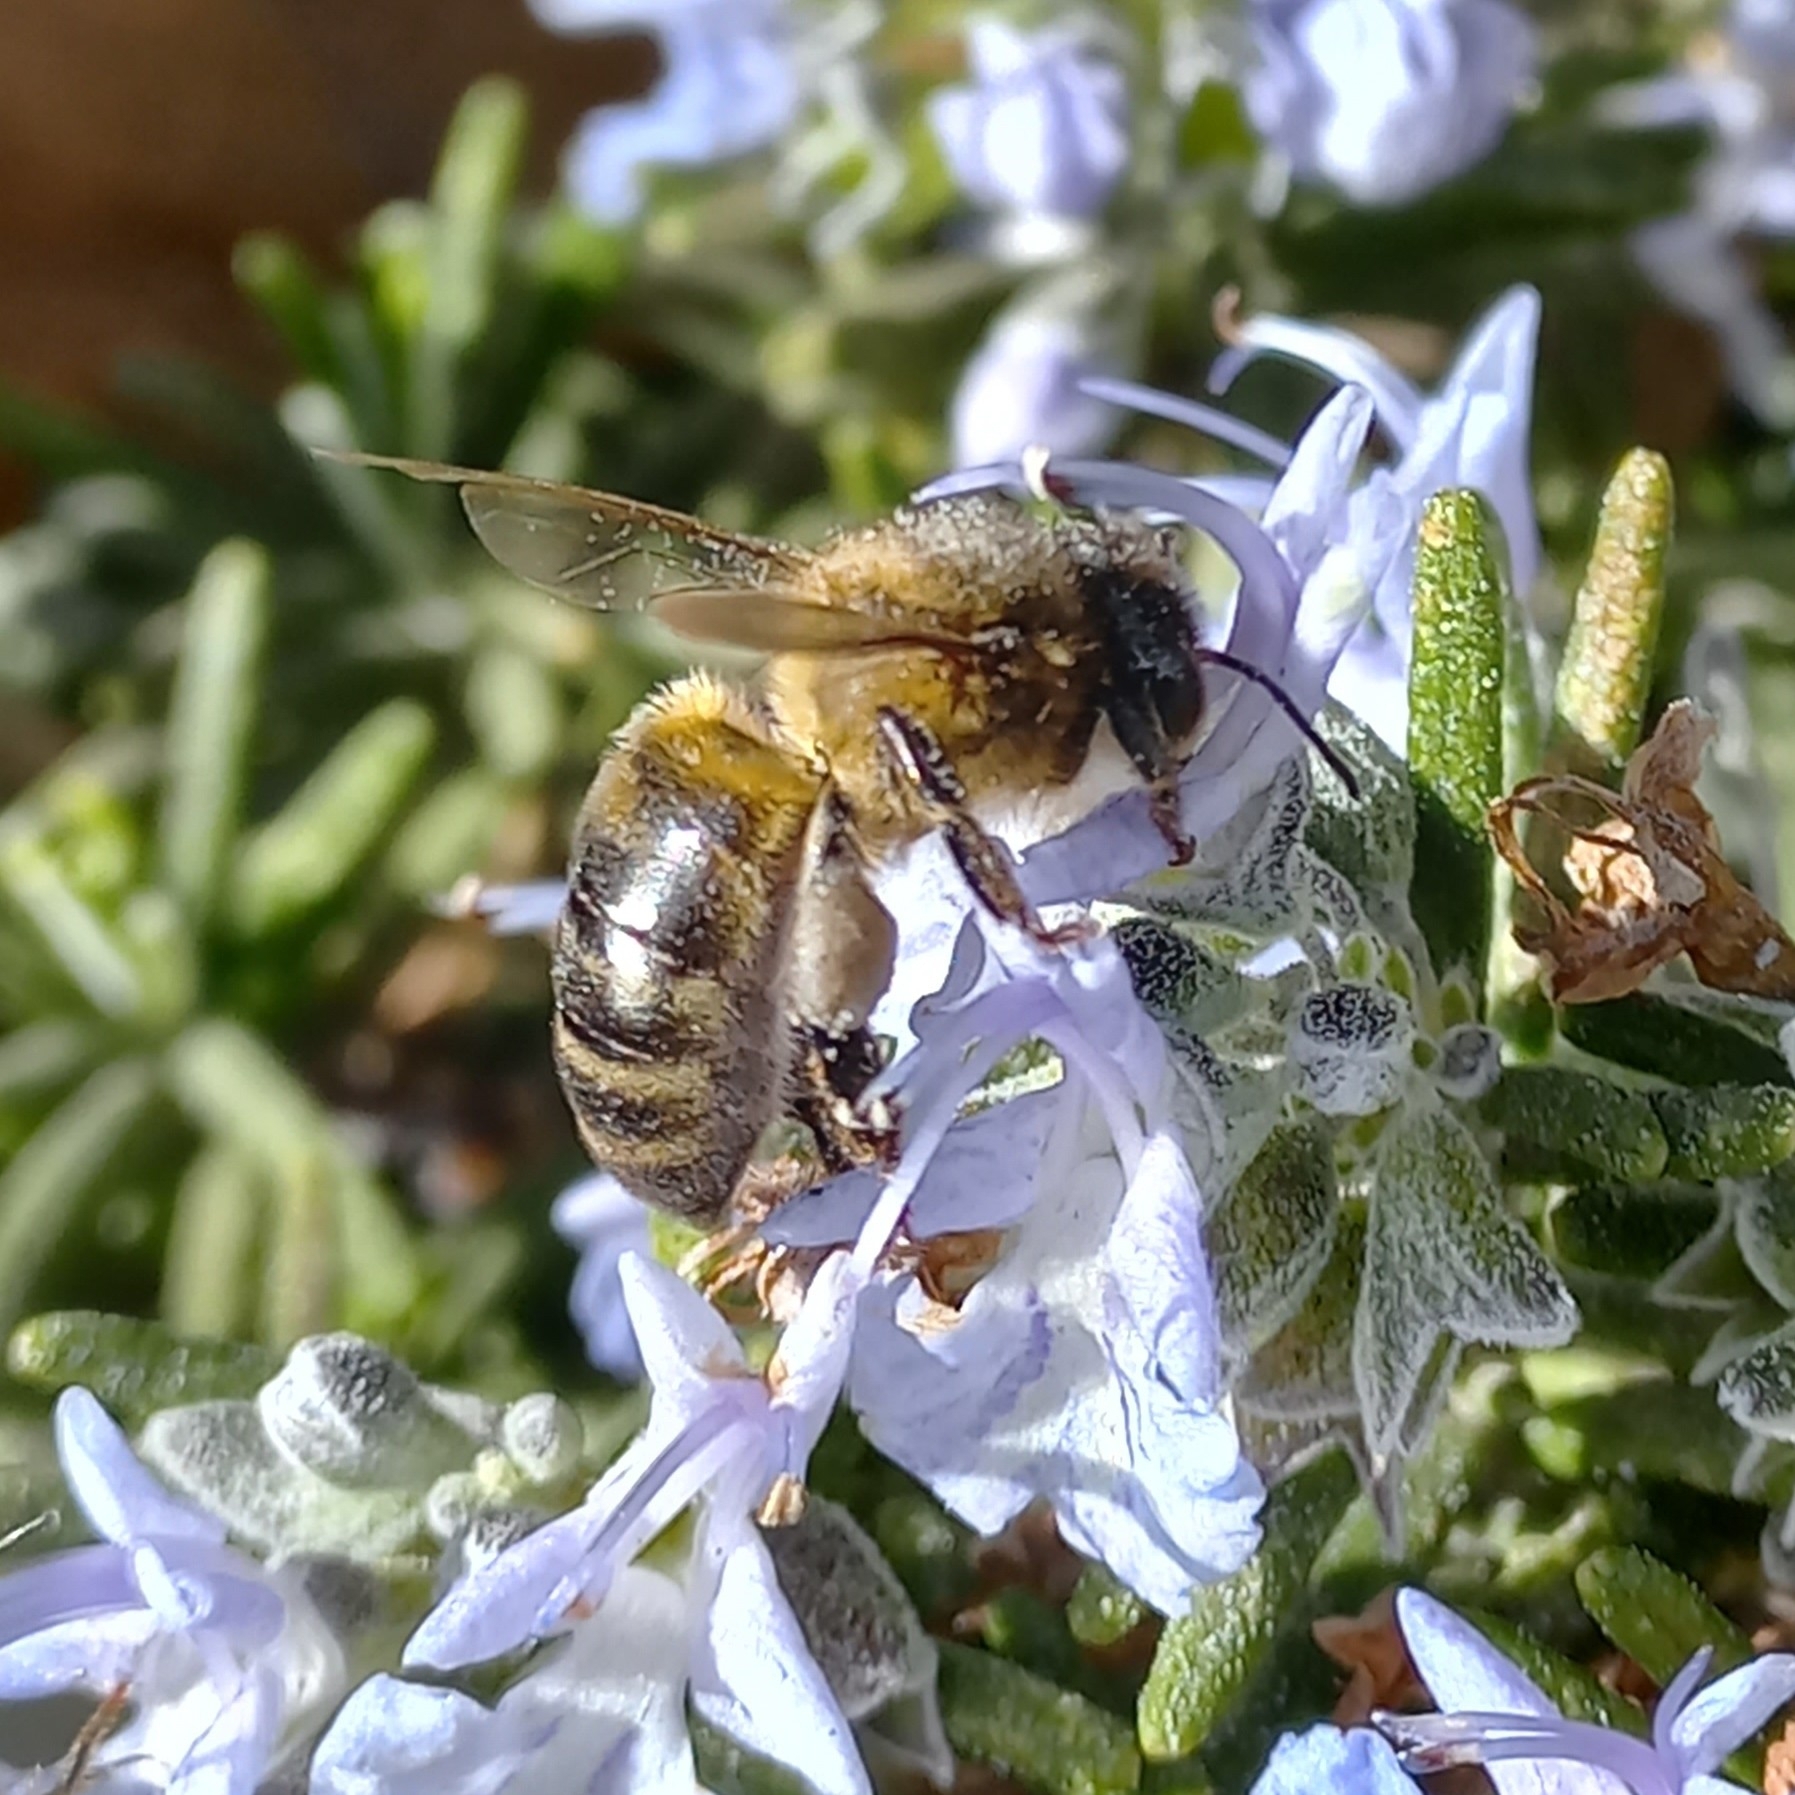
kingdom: Animalia
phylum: Arthropoda
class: Insecta
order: Hymenoptera
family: Apidae
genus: Apis
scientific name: Apis mellifera
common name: Honey bee
